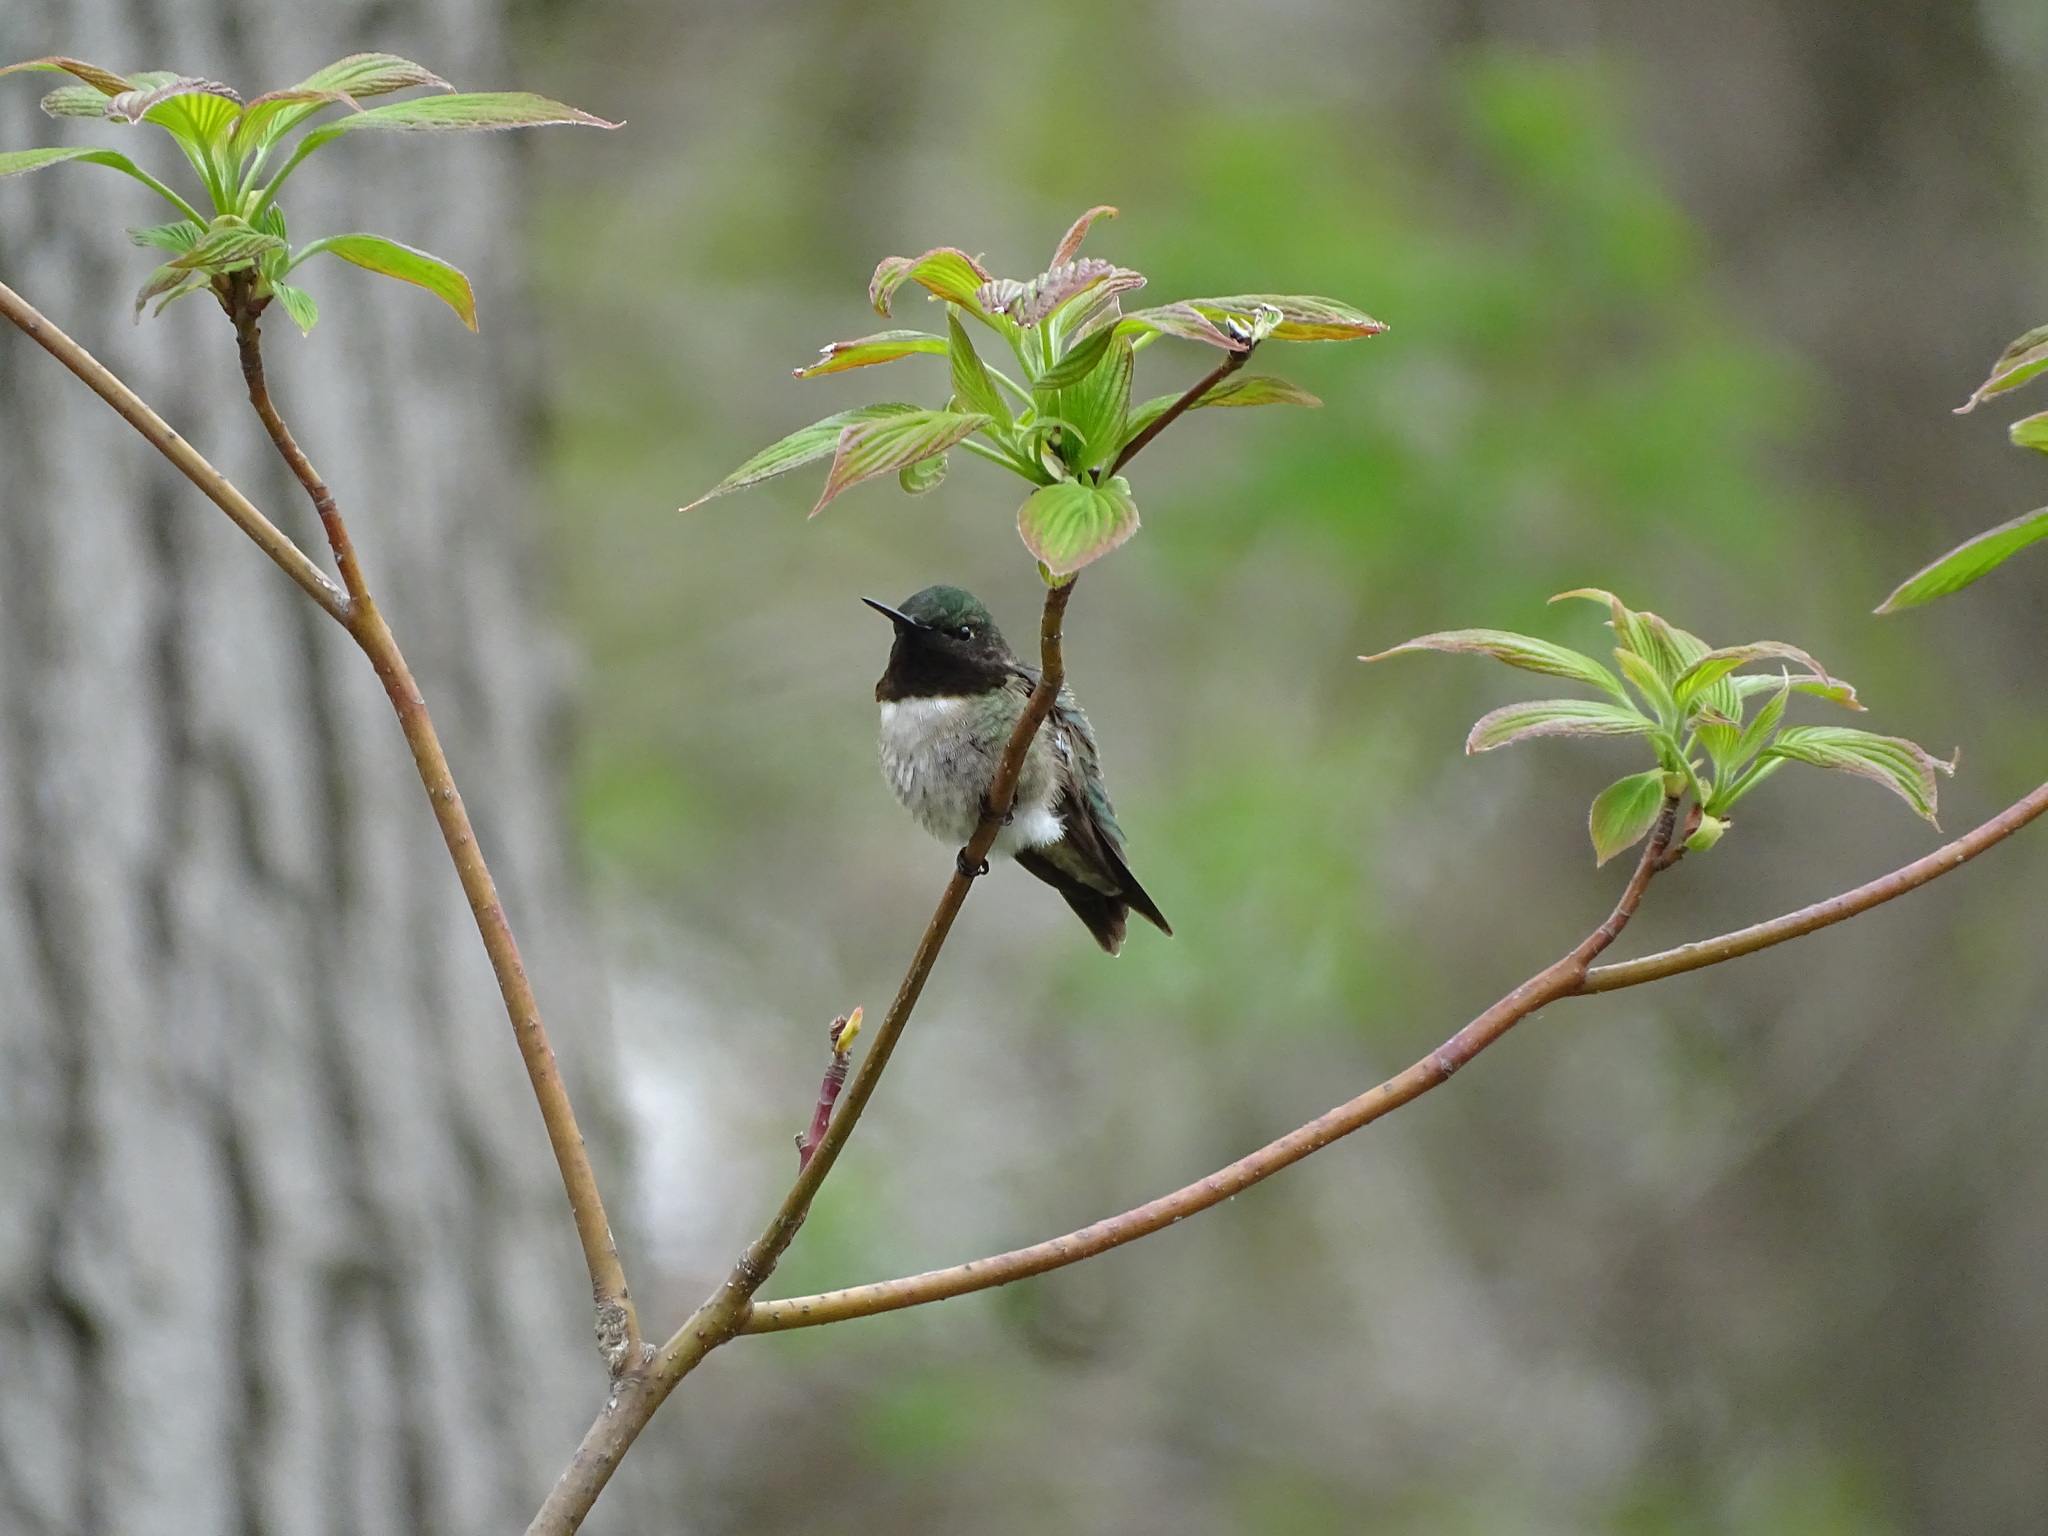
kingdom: Animalia
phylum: Chordata
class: Aves
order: Apodiformes
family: Trochilidae
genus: Archilochus
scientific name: Archilochus colubris
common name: Ruby-throated hummingbird
